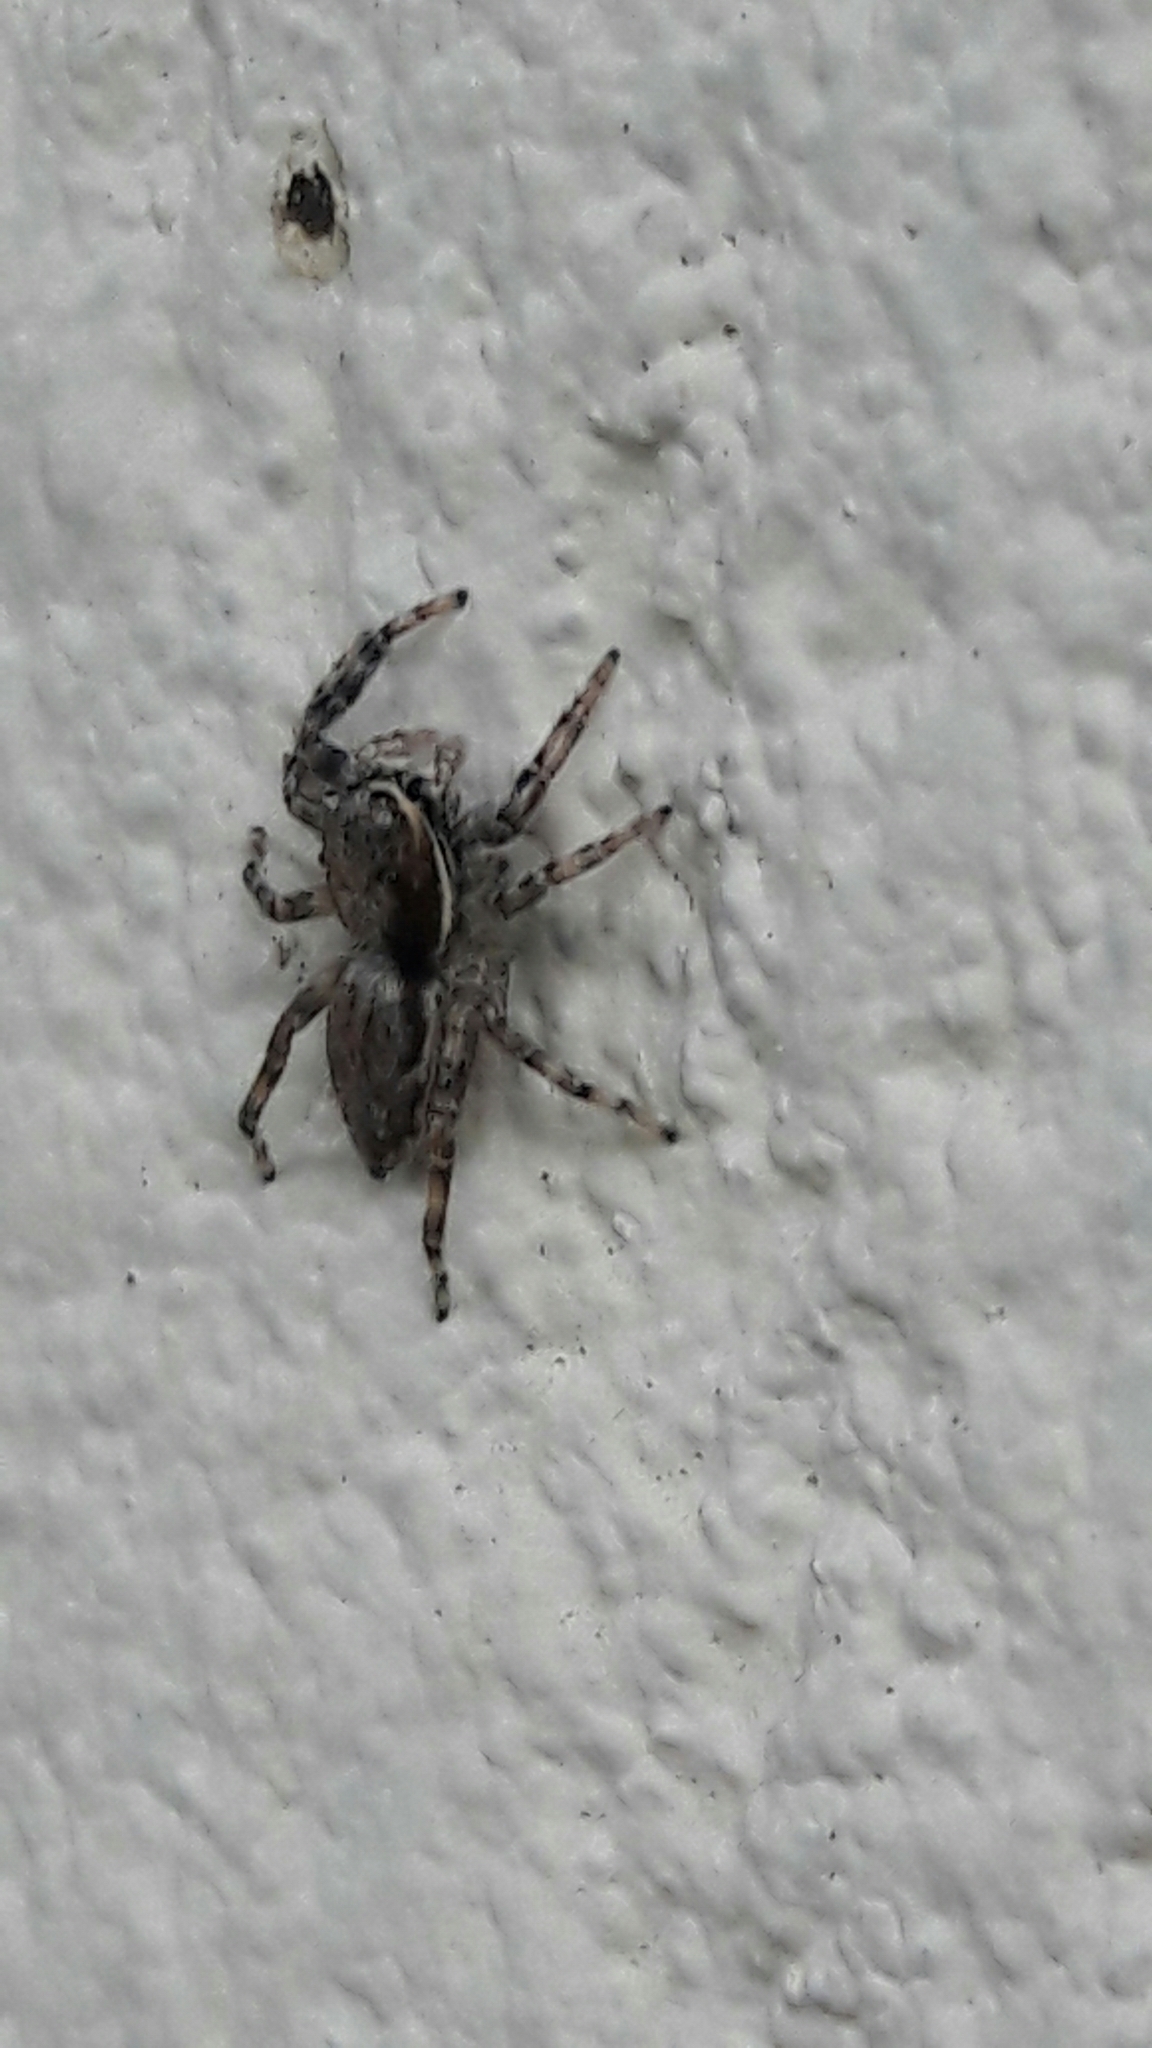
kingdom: Animalia
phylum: Arthropoda
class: Arachnida
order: Araneae
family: Salticidae
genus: Menemerus
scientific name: Menemerus bivittatus
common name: Gray wall jumper
